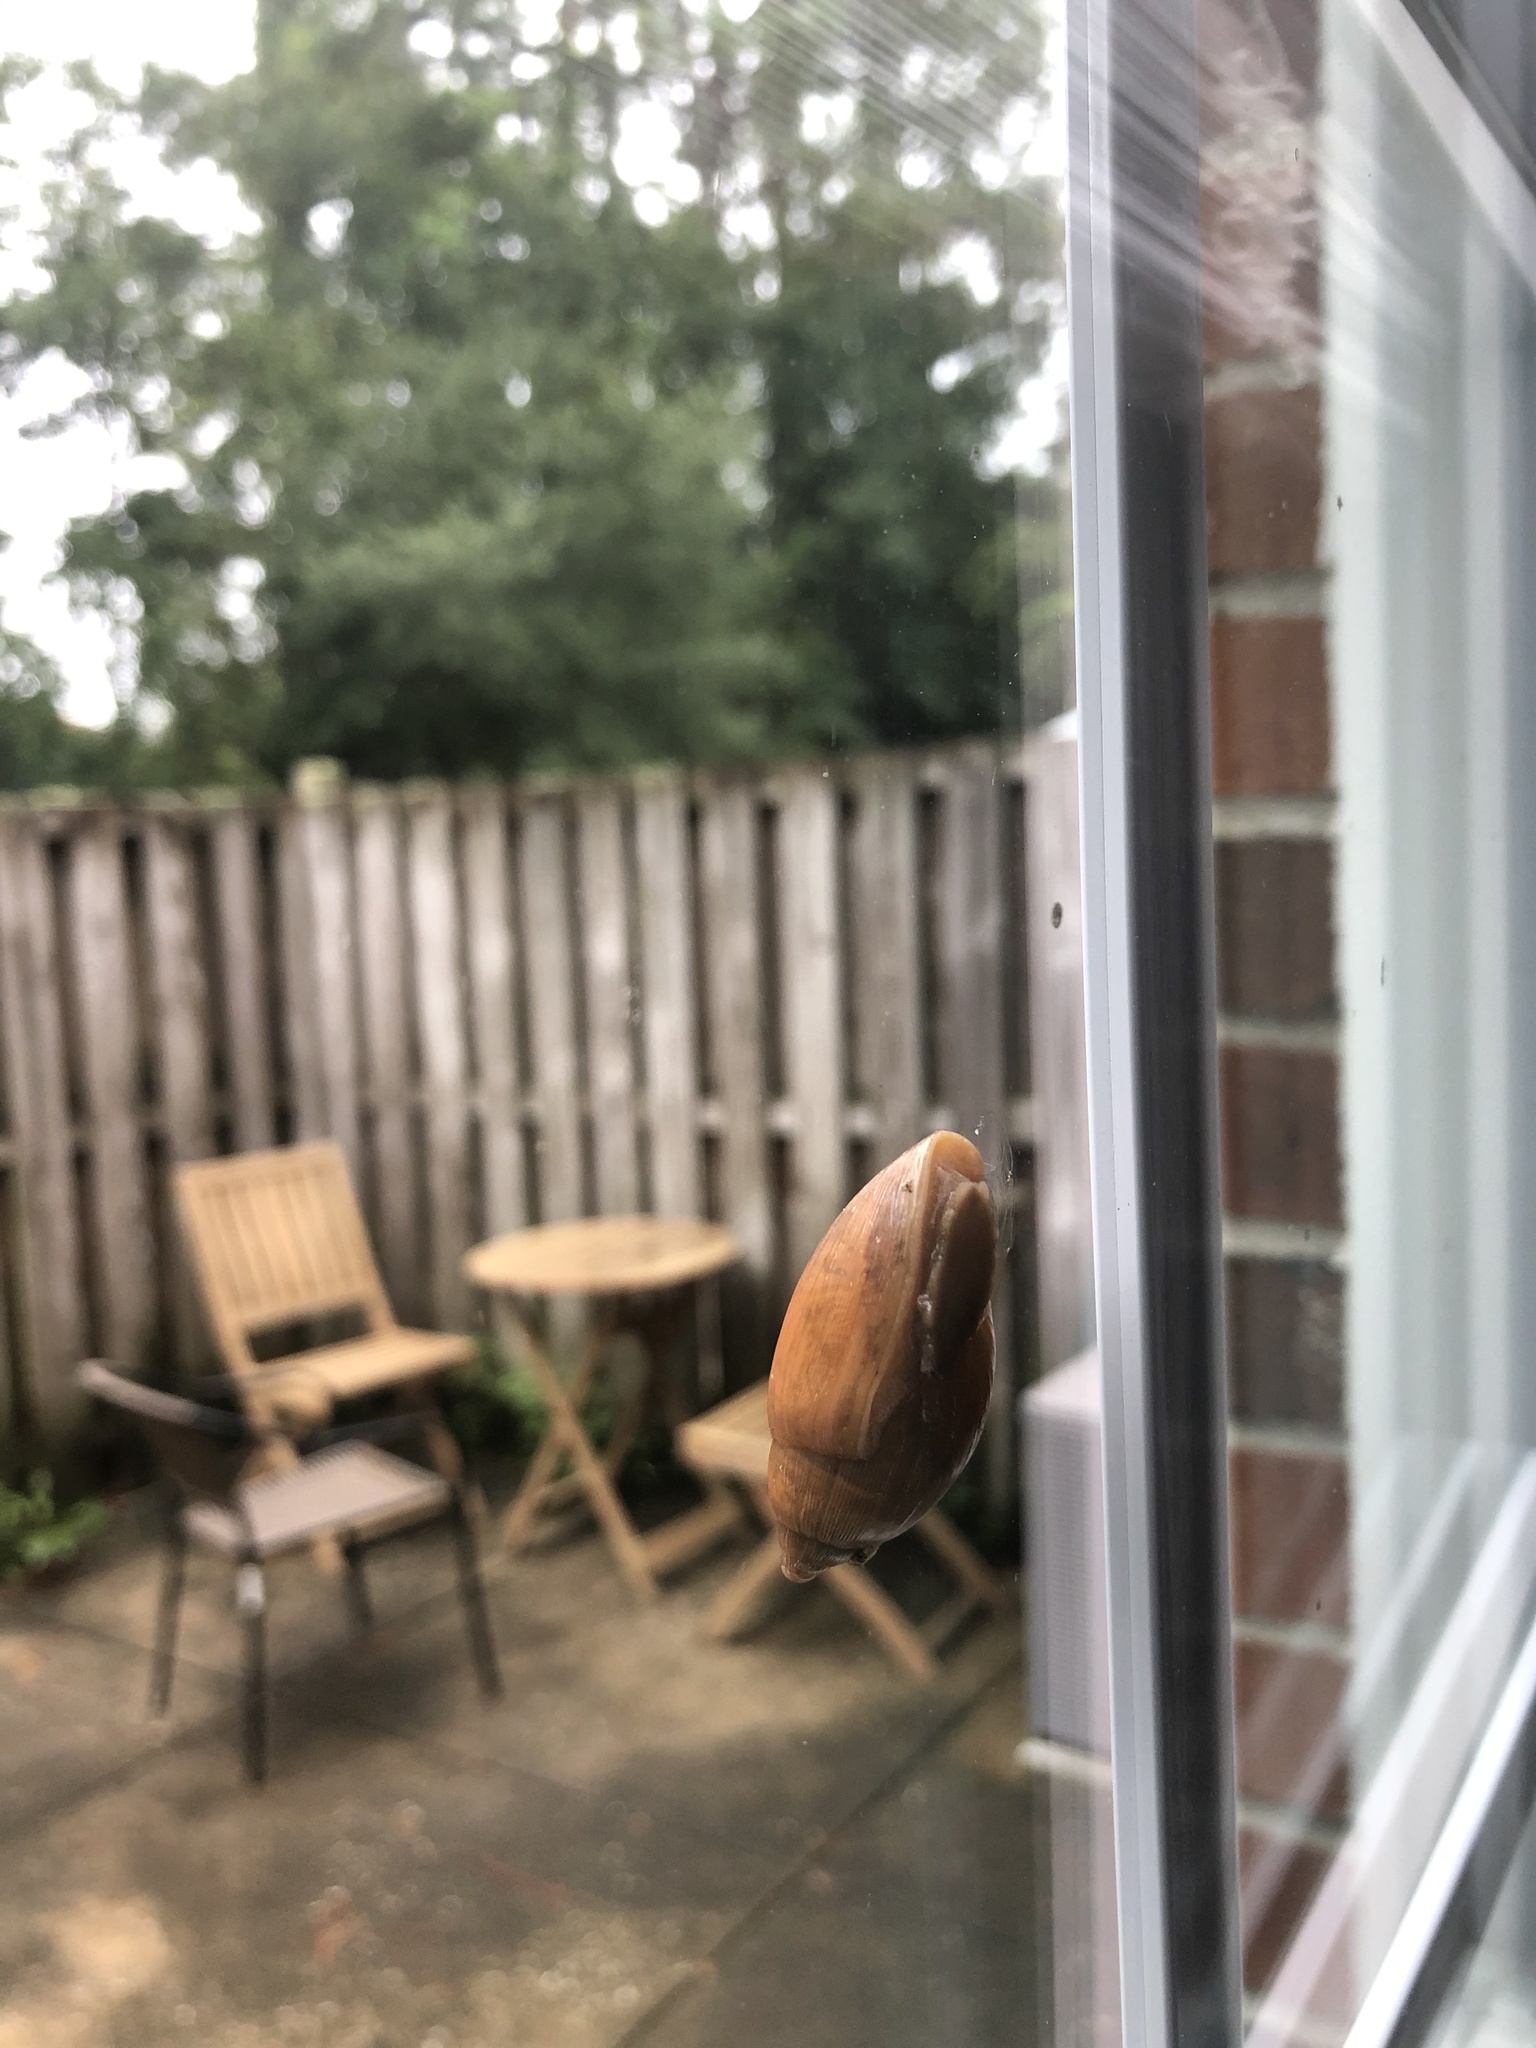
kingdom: Animalia
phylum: Mollusca
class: Gastropoda
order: Stylommatophora
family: Spiraxidae
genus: Euglandina
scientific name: Euglandina rosea
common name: Rosy wolfsnail
